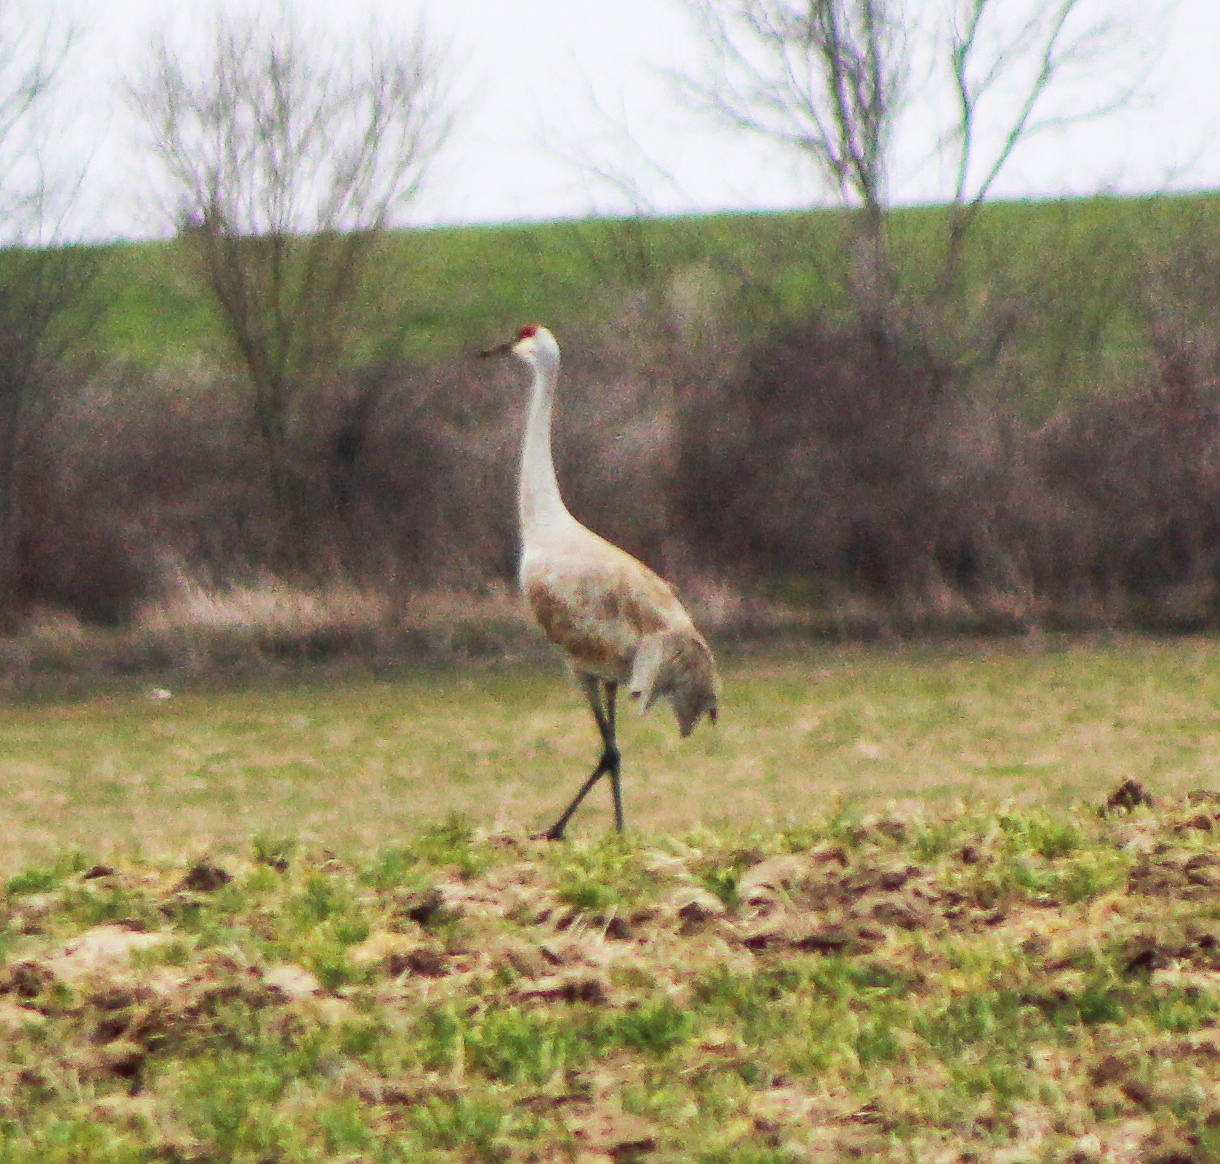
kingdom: Animalia
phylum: Chordata
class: Aves
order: Gruiformes
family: Gruidae
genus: Grus
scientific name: Grus canadensis
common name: Sandhill crane
